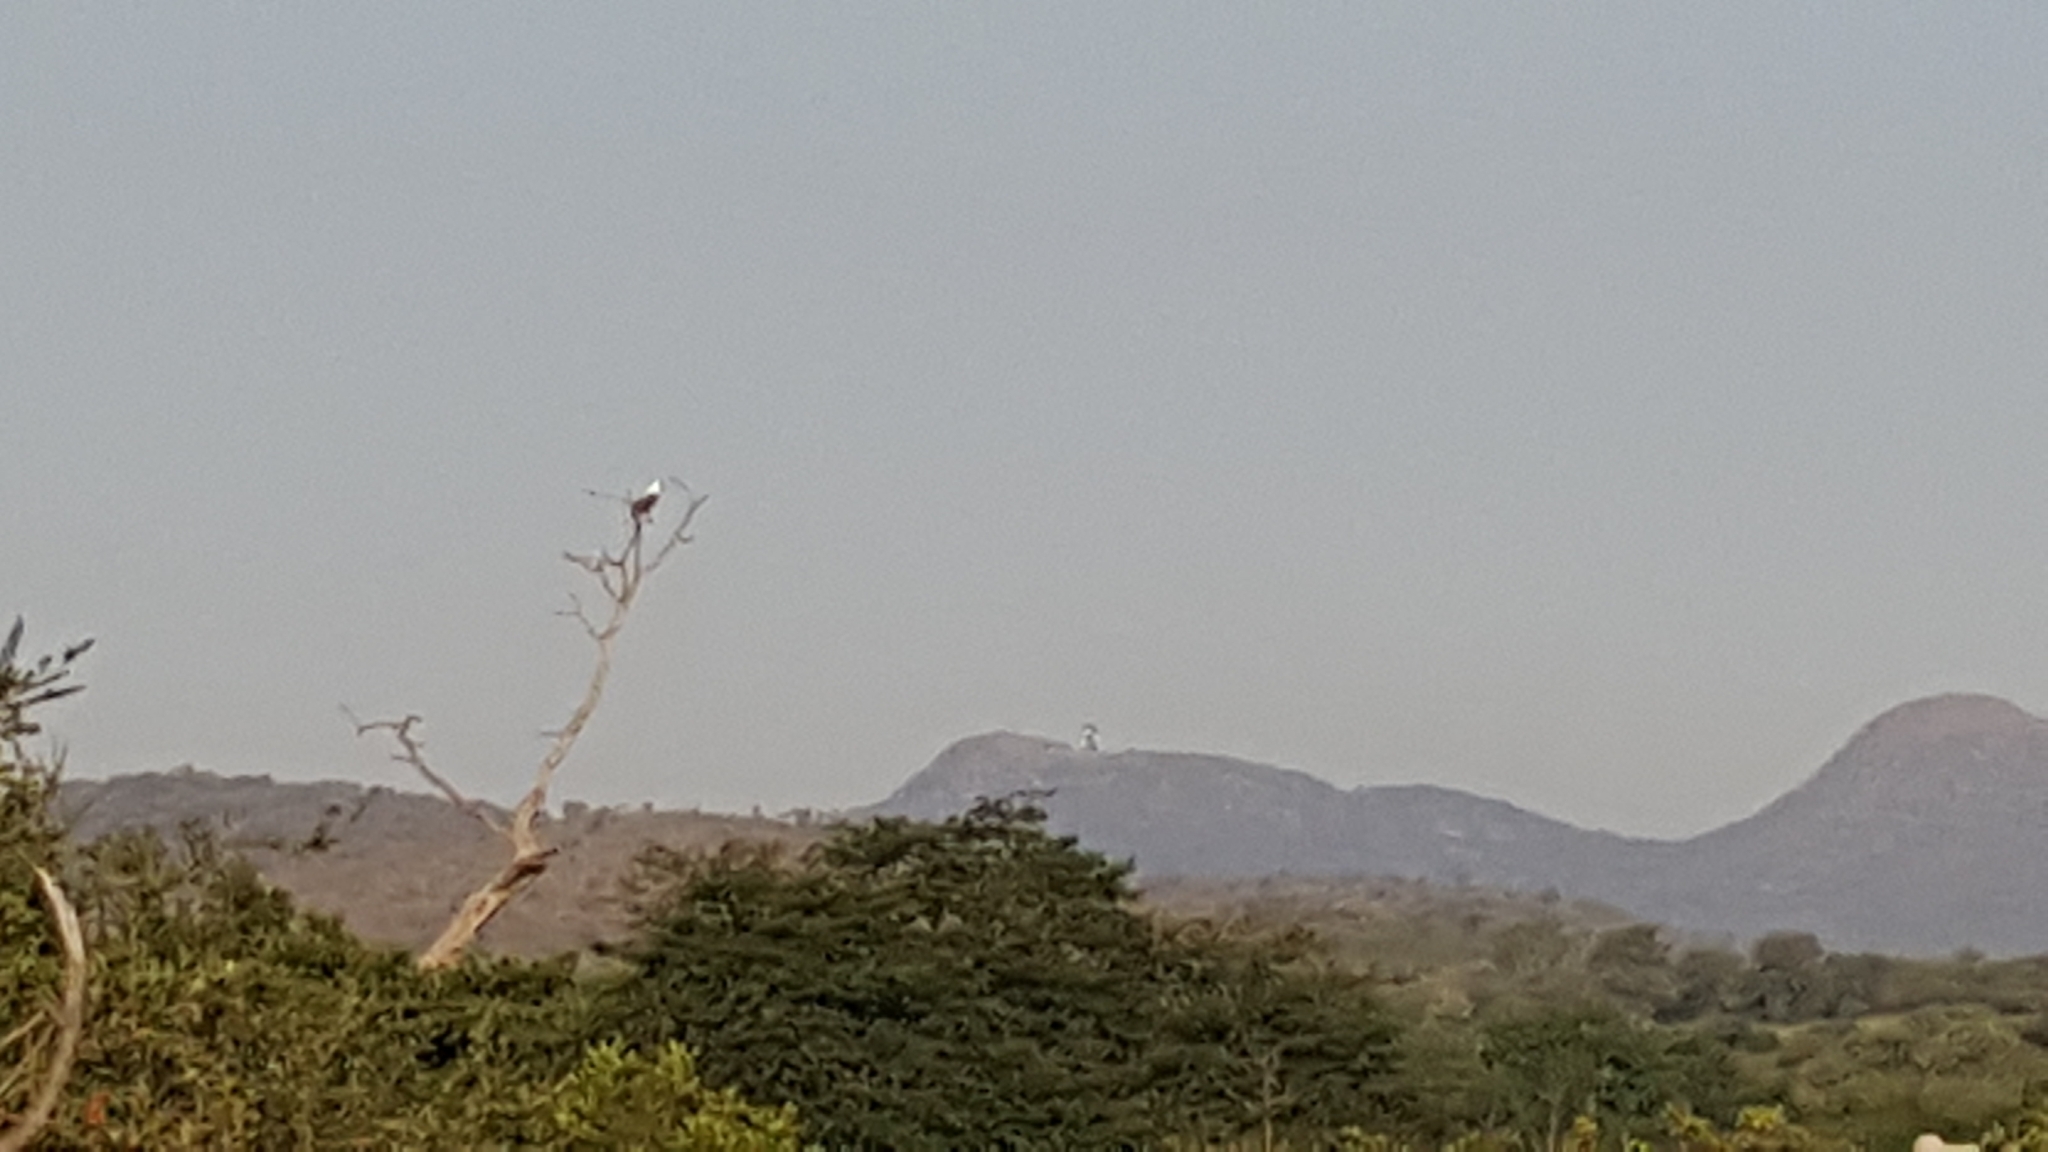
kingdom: Animalia
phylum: Chordata
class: Aves
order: Accipitriformes
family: Accipitridae
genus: Haliaeetus
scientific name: Haliaeetus vocifer
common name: African fish eagle
